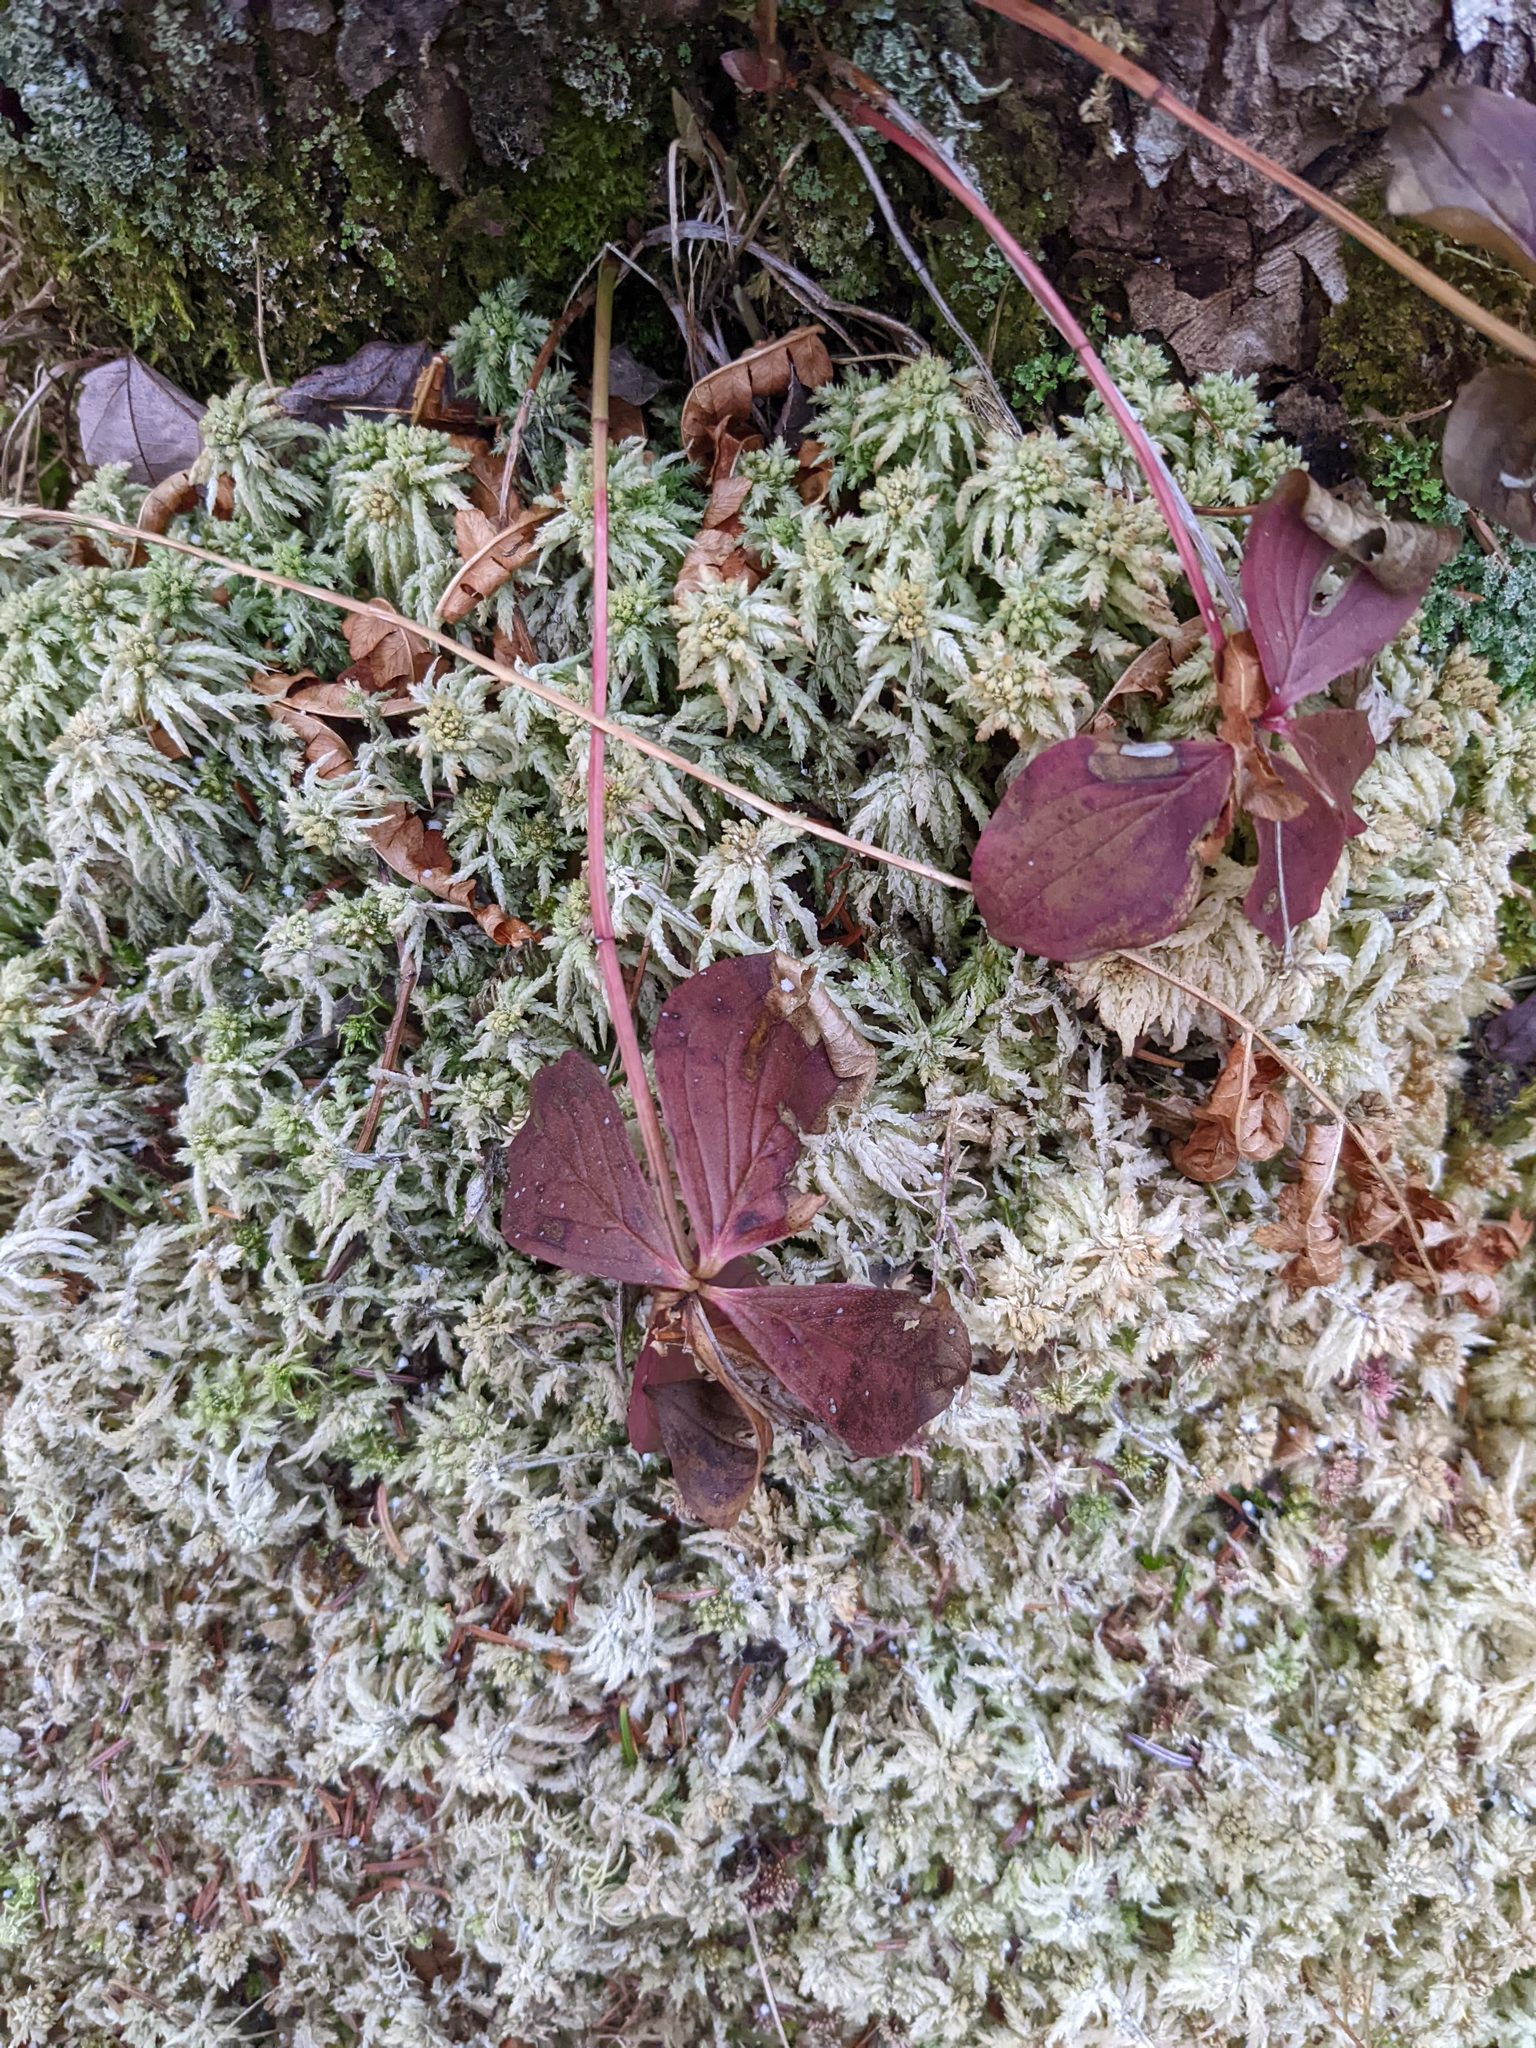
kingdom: Plantae
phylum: Tracheophyta
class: Magnoliopsida
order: Cornales
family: Cornaceae
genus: Cornus
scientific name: Cornus canadensis
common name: Creeping dogwood
